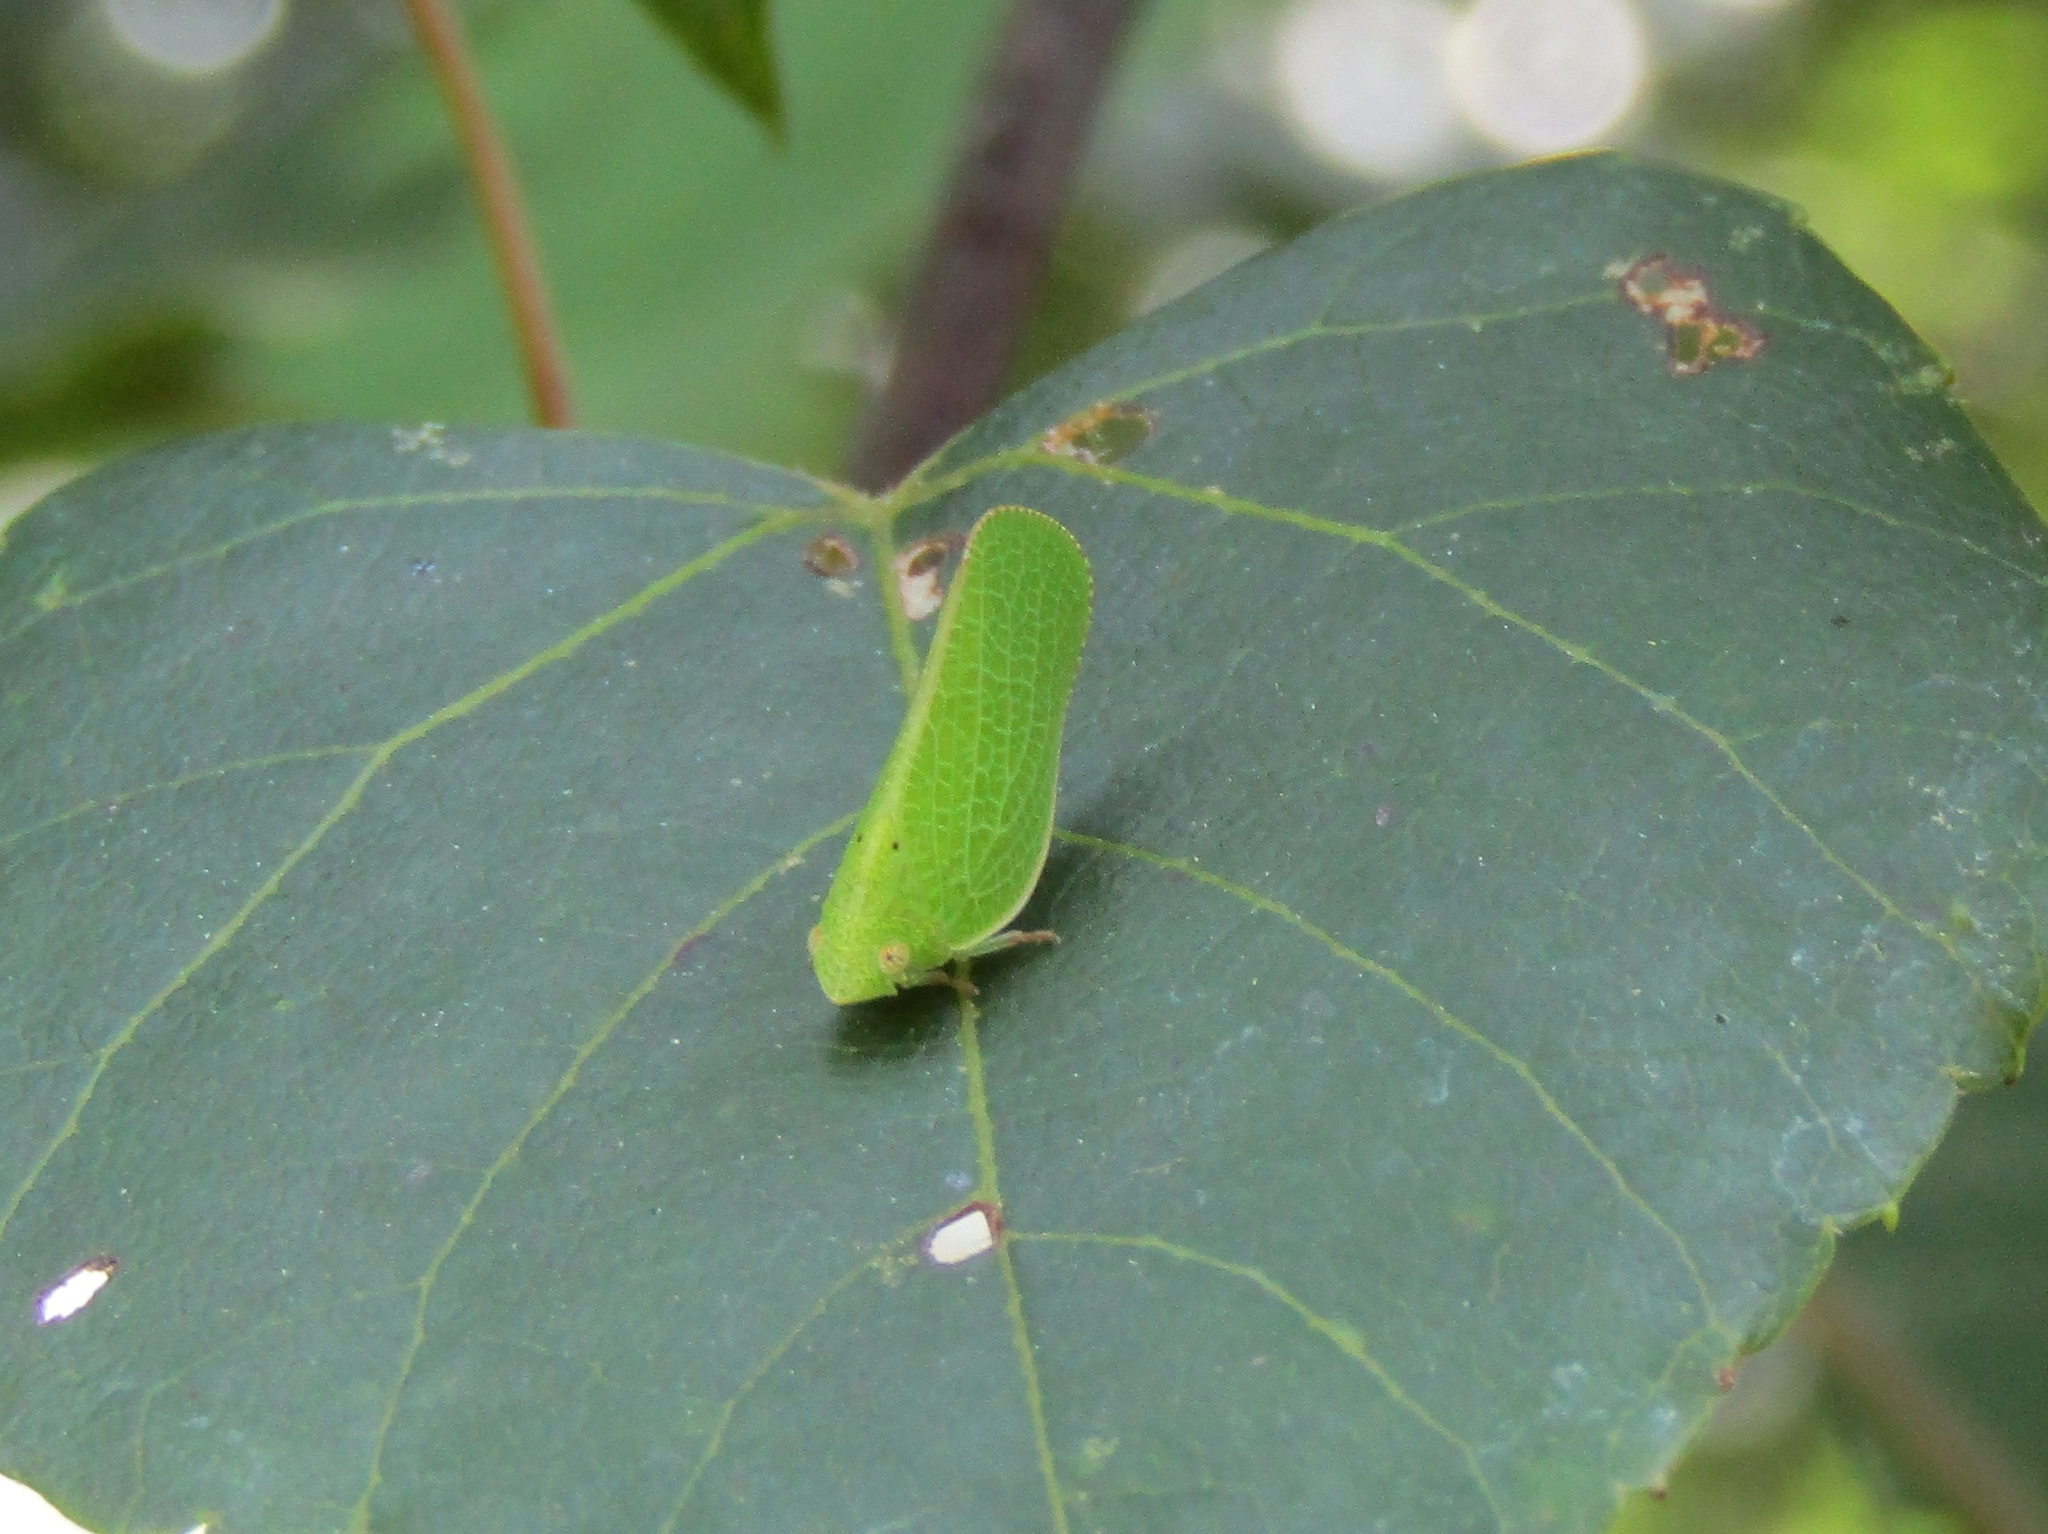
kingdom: Animalia
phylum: Arthropoda
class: Insecta
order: Hemiptera
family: Acanaloniidae
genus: Acanalonia
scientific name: Acanalonia conica
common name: Green cone-headed planthopper
